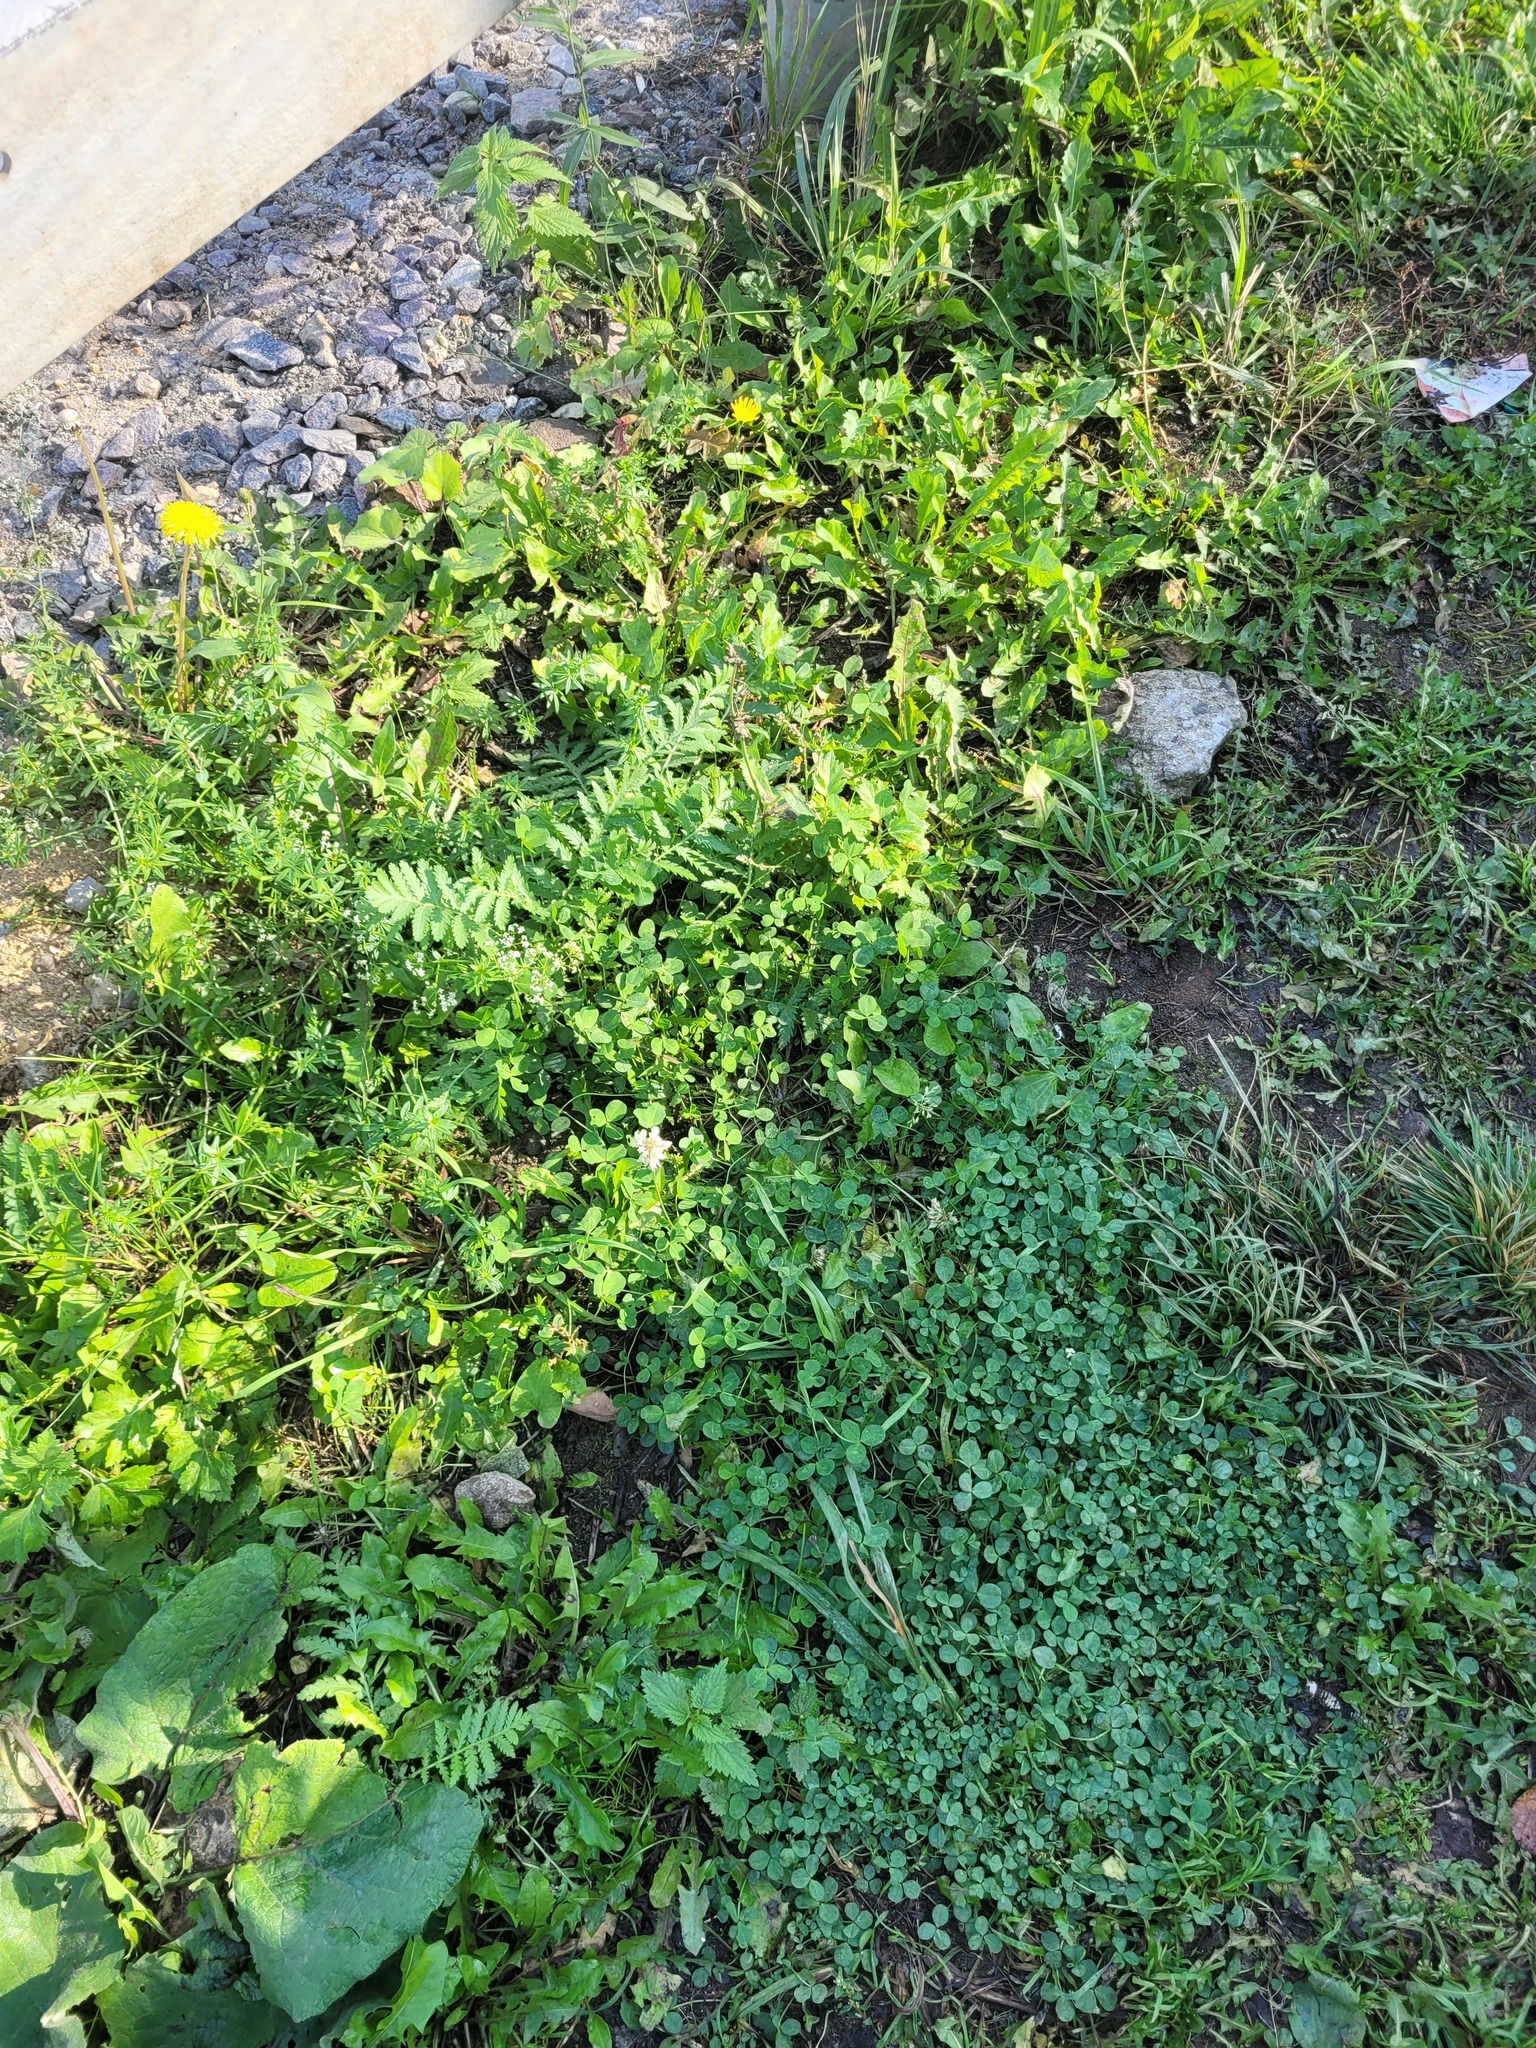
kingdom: Plantae
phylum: Tracheophyta
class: Magnoliopsida
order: Fabales
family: Fabaceae
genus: Trifolium
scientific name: Trifolium repens
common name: White clover
